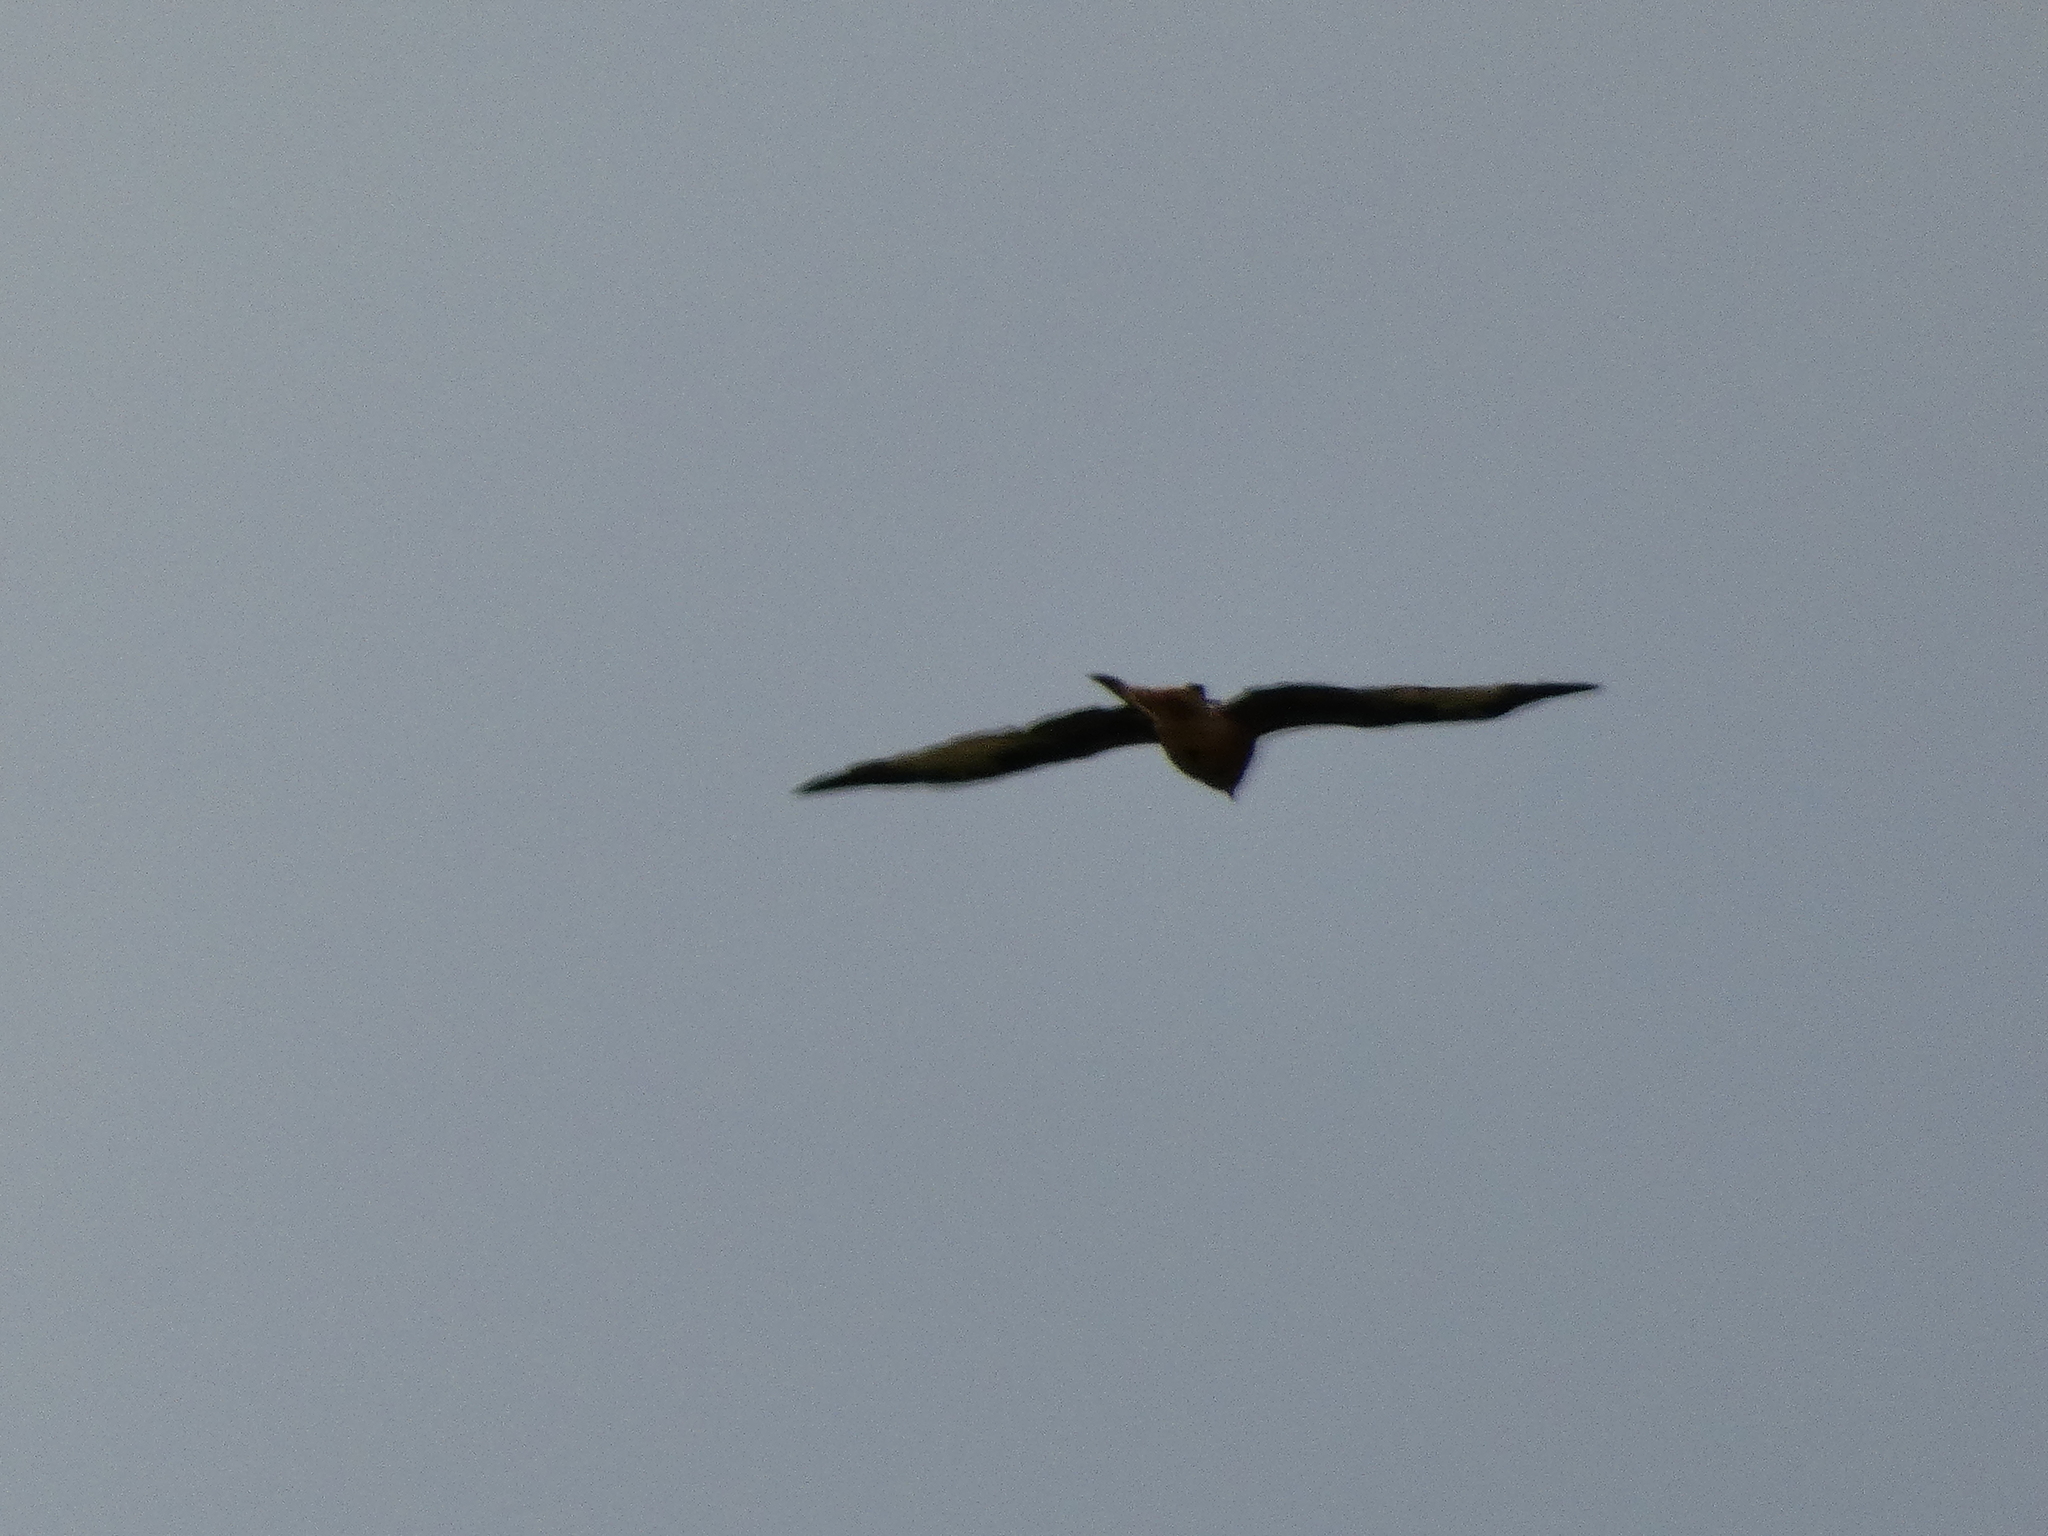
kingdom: Animalia
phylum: Chordata
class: Aves
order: Accipitriformes
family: Accipitridae
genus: Milvus
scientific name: Milvus milvus
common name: Red kite
